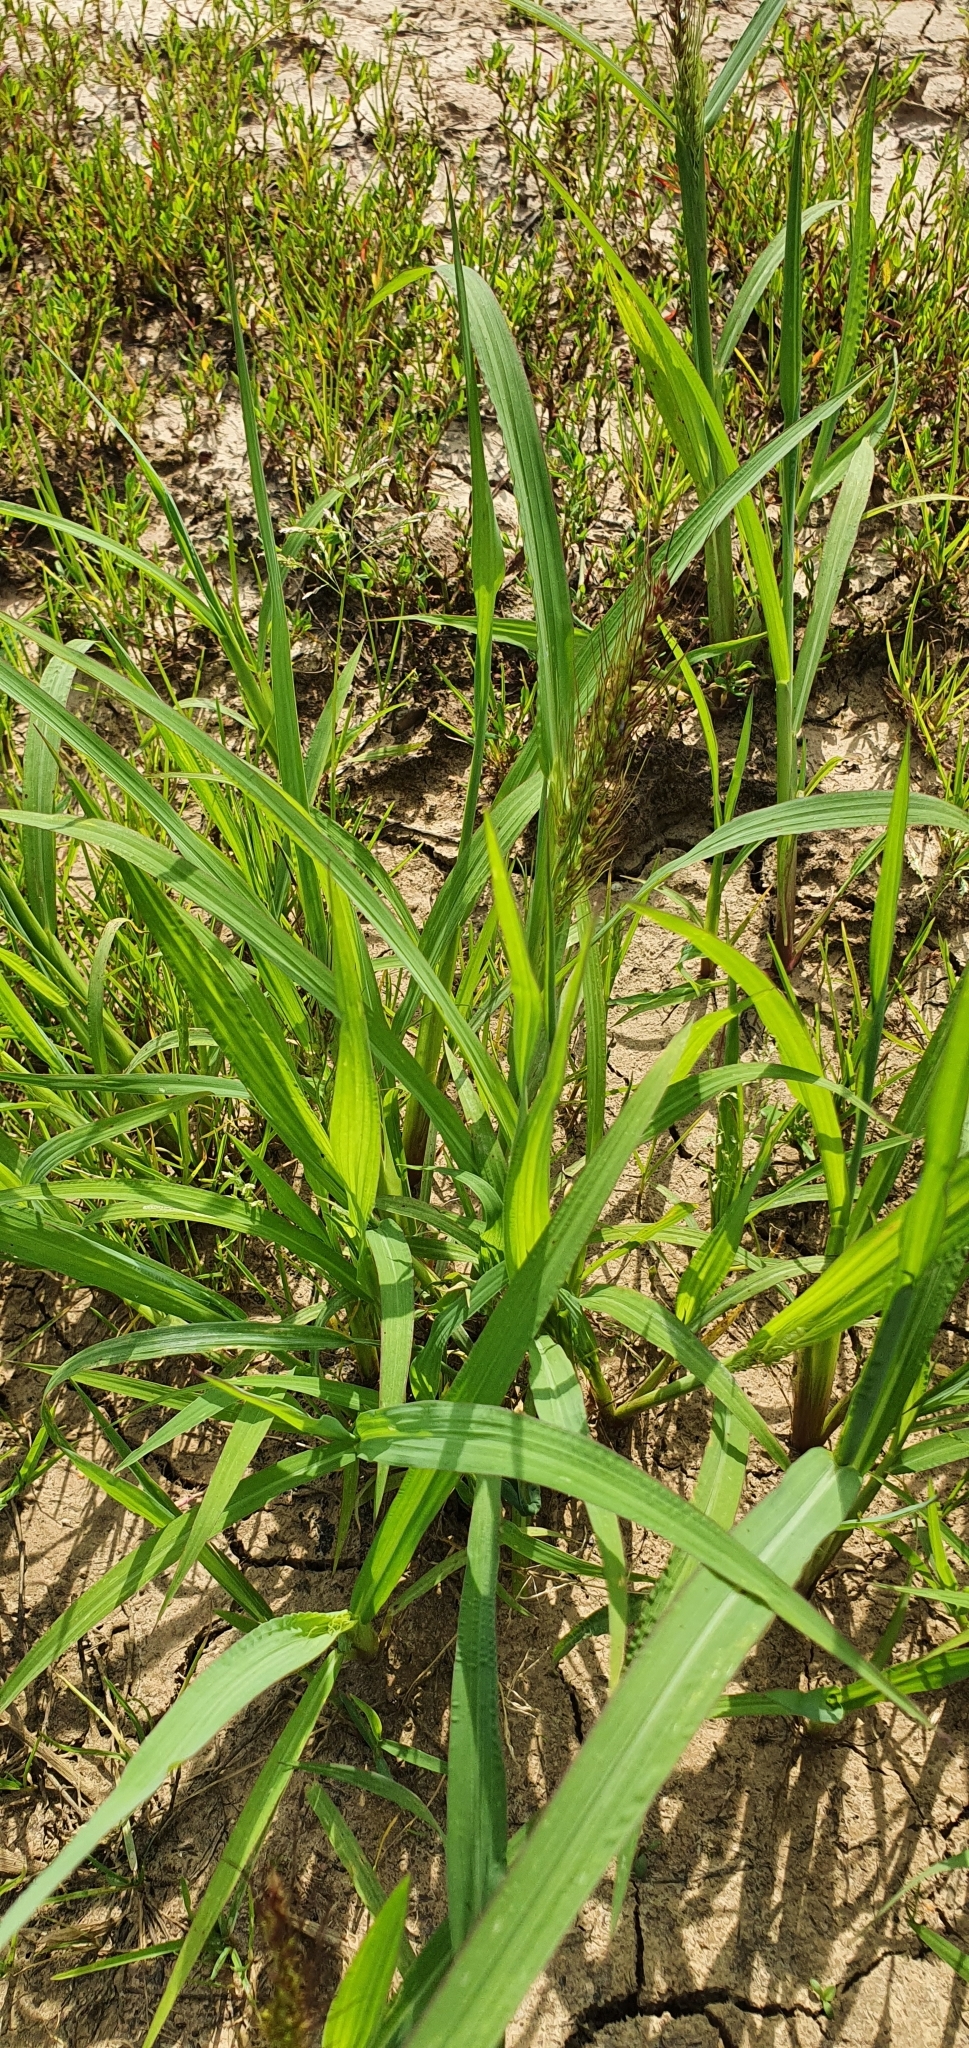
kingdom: Plantae
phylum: Tracheophyta
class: Liliopsida
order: Poales
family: Poaceae
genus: Echinochloa
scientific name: Echinochloa crus-galli
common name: Cockspur
